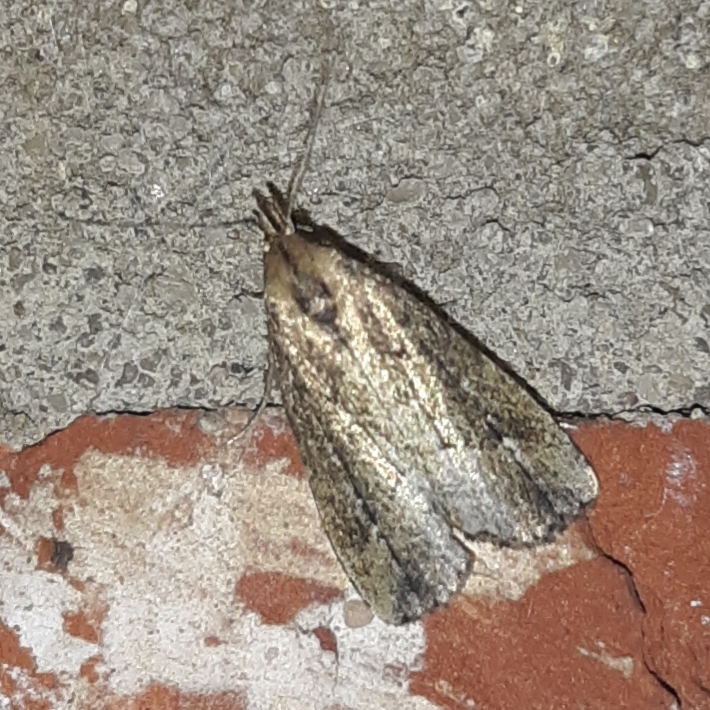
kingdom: Animalia
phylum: Arthropoda
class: Insecta
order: Lepidoptera
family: Erebidae
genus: Schrankia
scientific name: Schrankia
